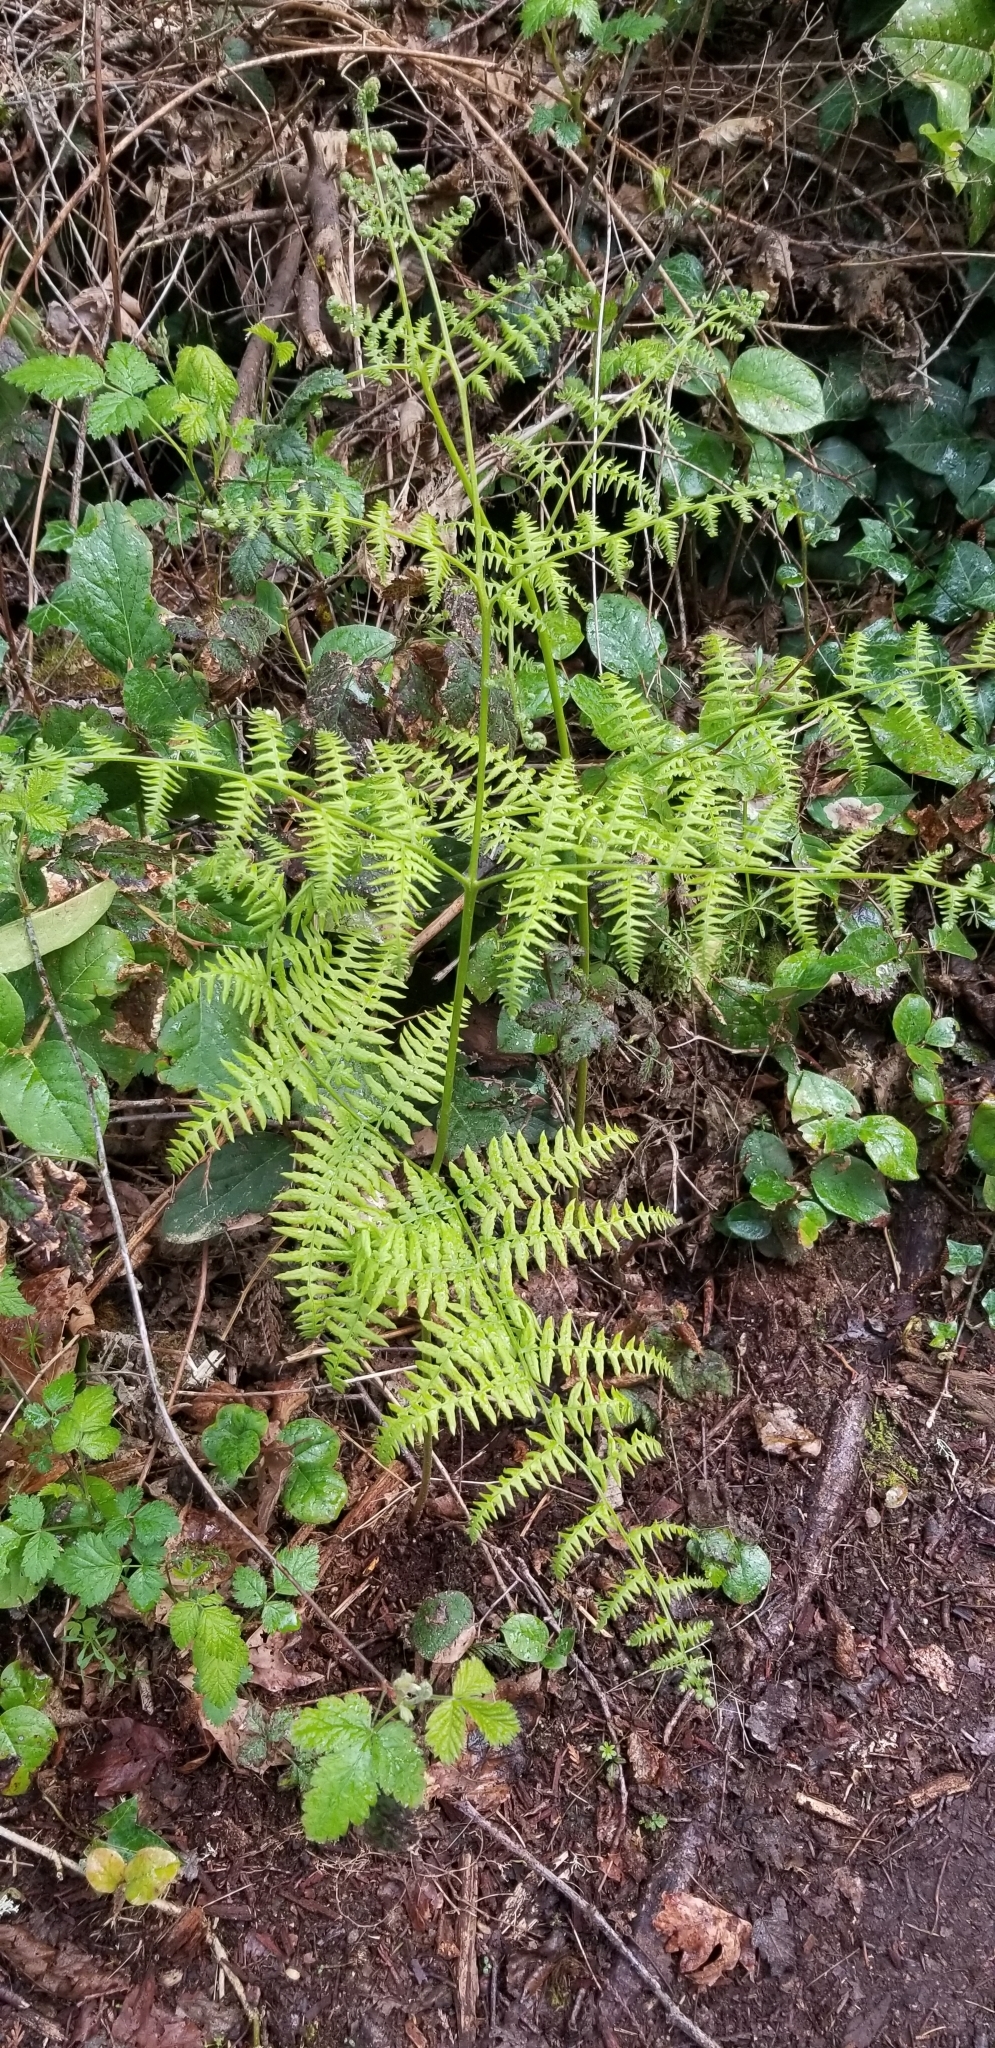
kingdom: Plantae
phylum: Tracheophyta
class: Polypodiopsida
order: Polypodiales
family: Dennstaedtiaceae
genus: Pteridium
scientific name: Pteridium aquilinum
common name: Bracken
